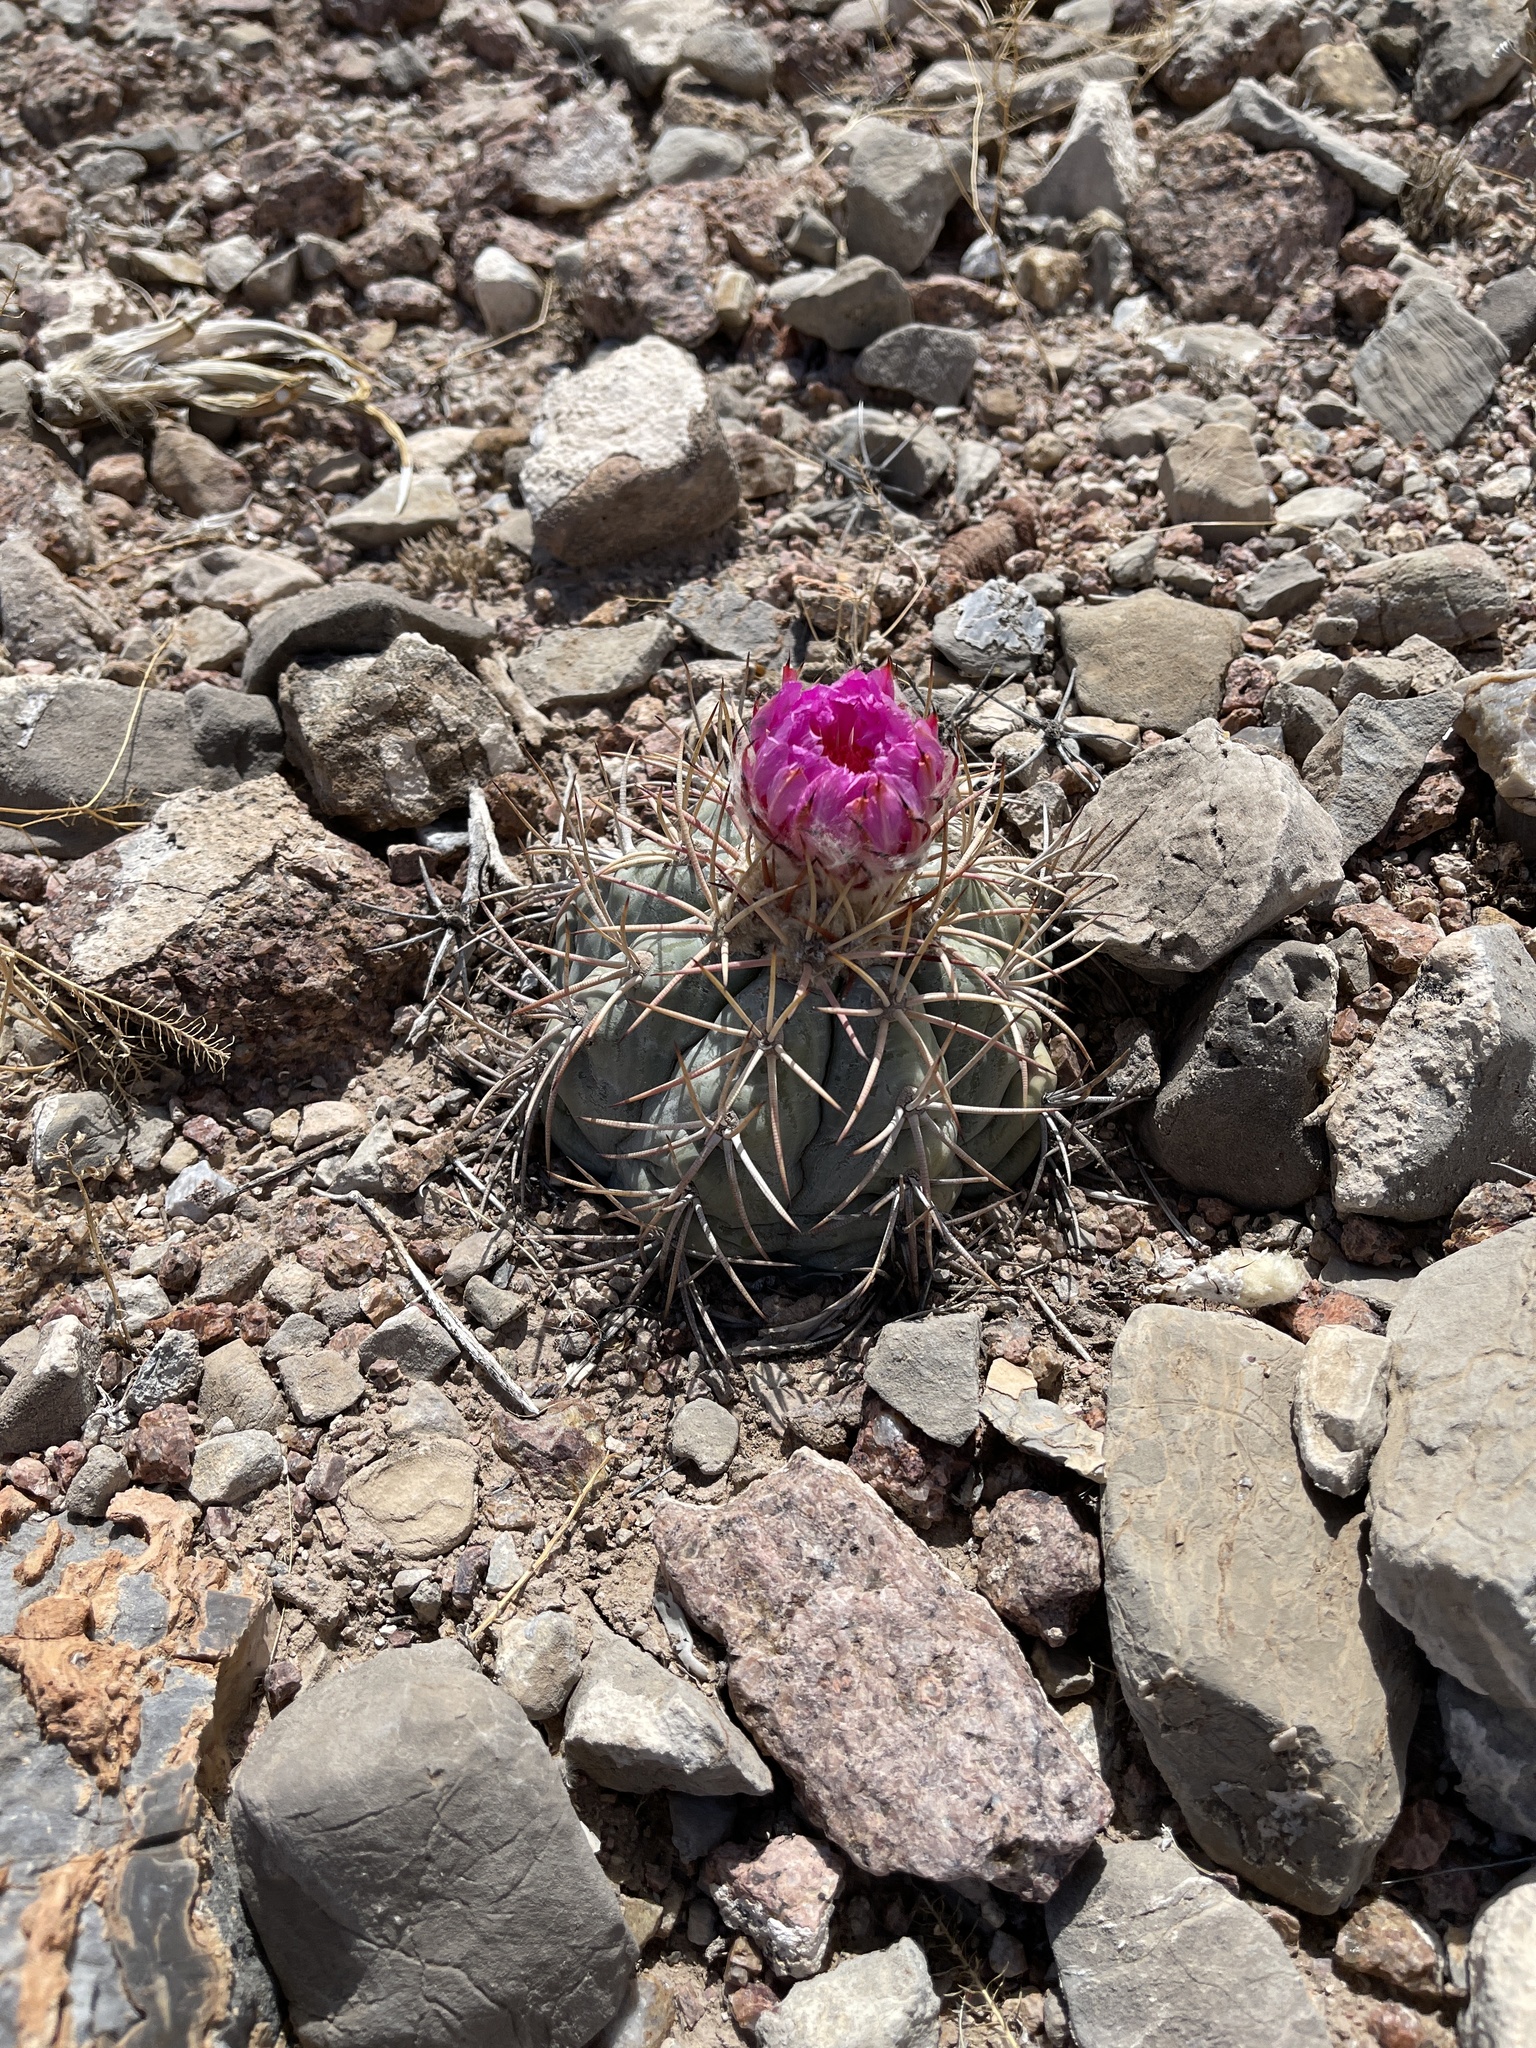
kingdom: Plantae
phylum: Tracheophyta
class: Magnoliopsida
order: Caryophyllales
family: Cactaceae
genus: Echinocactus
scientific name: Echinocactus horizonthalonius
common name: Devilshead
